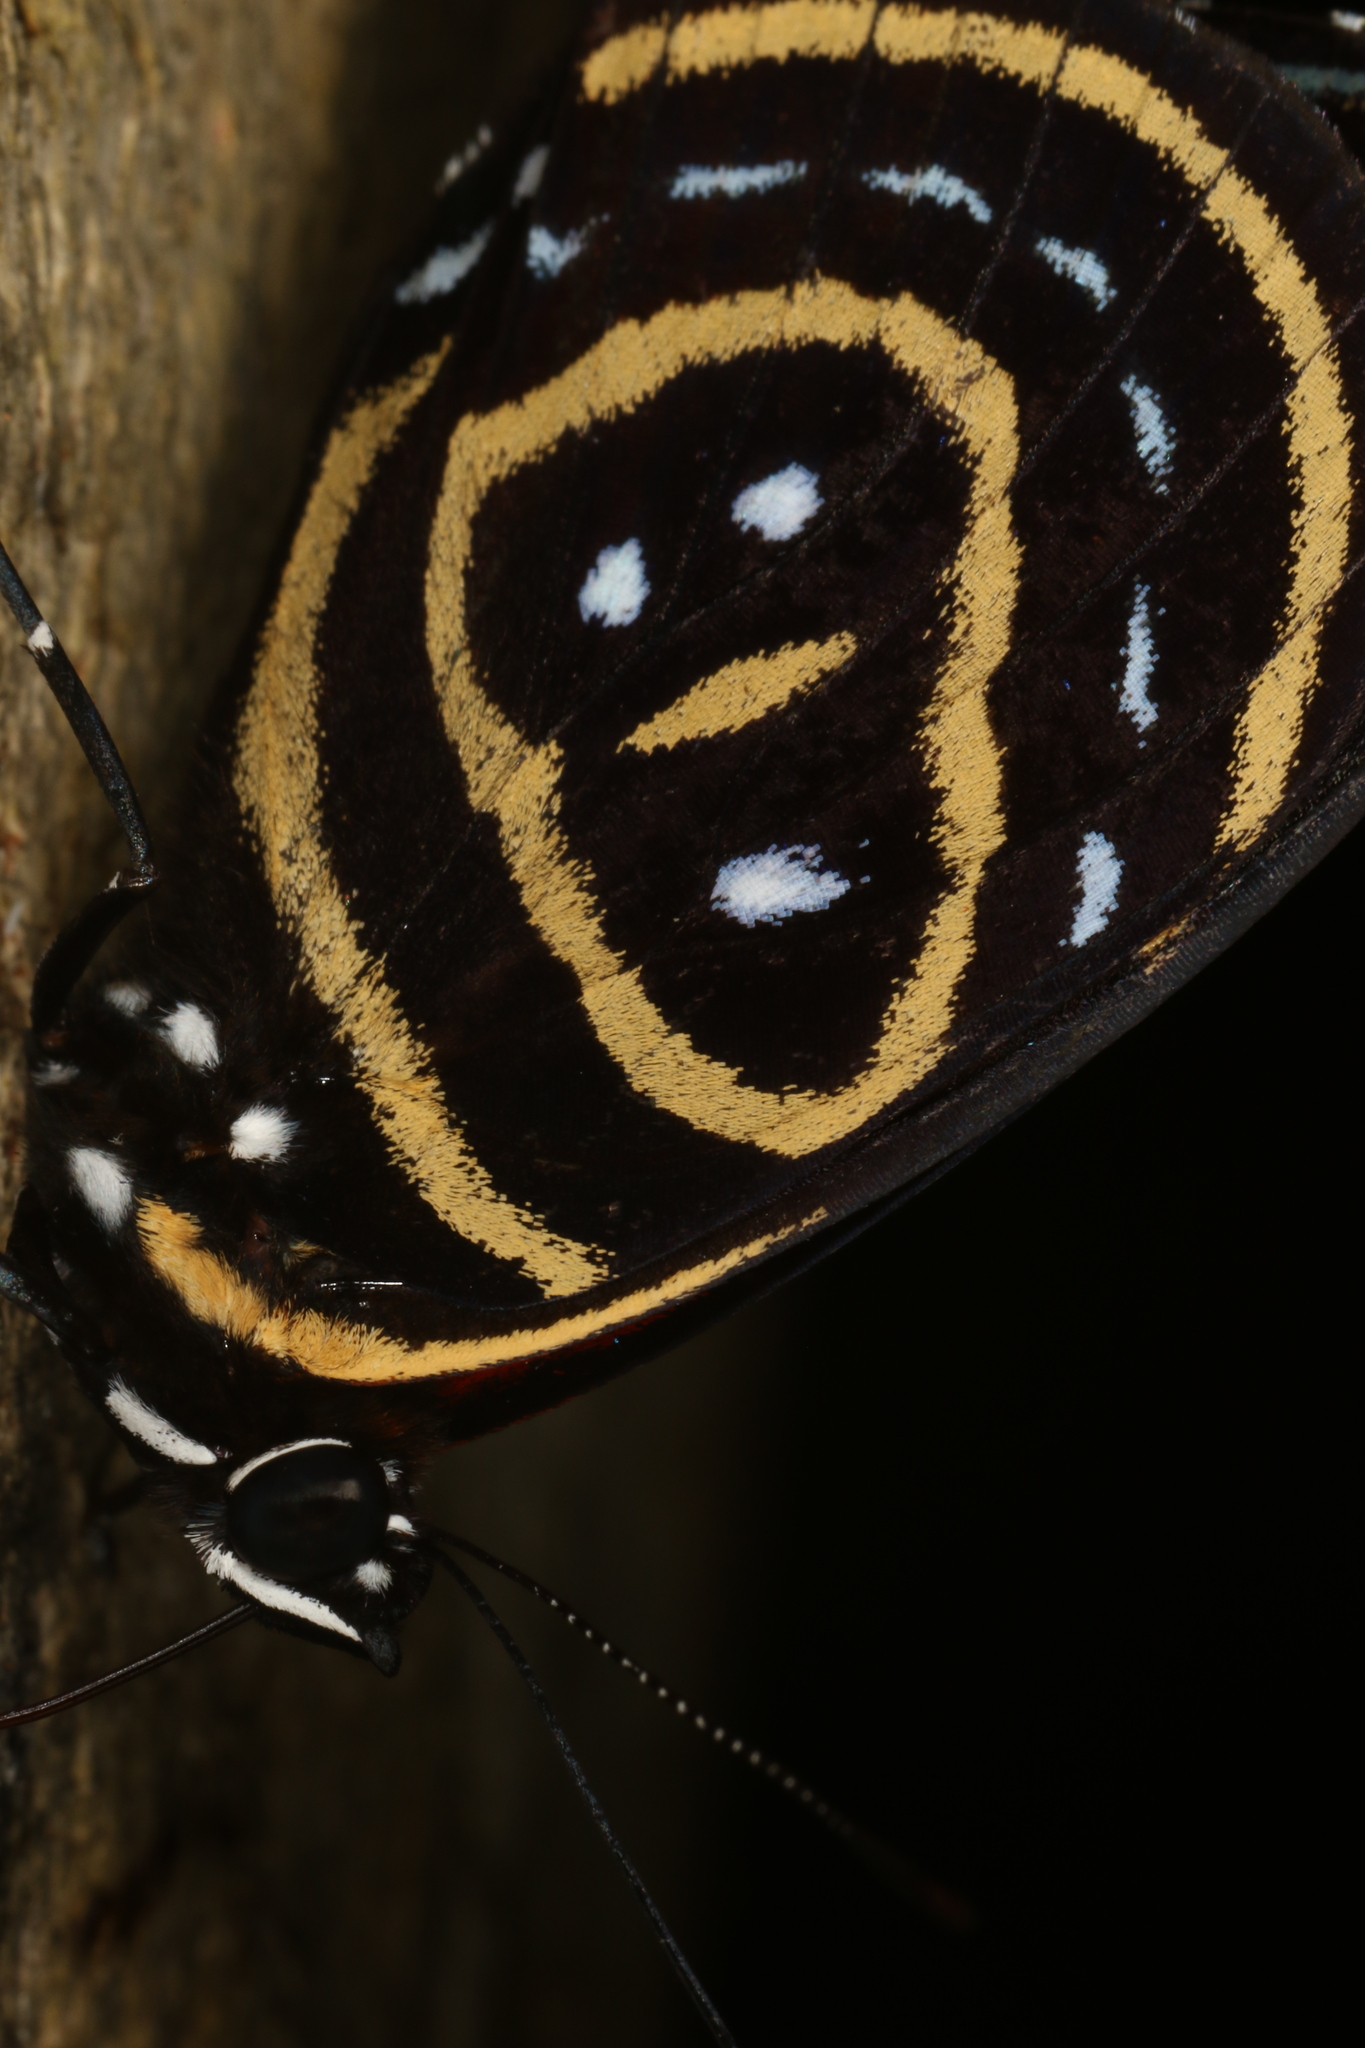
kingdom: Animalia
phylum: Arthropoda
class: Insecta
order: Lepidoptera
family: Nymphalidae
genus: Catagramma
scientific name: Catagramma astarte
